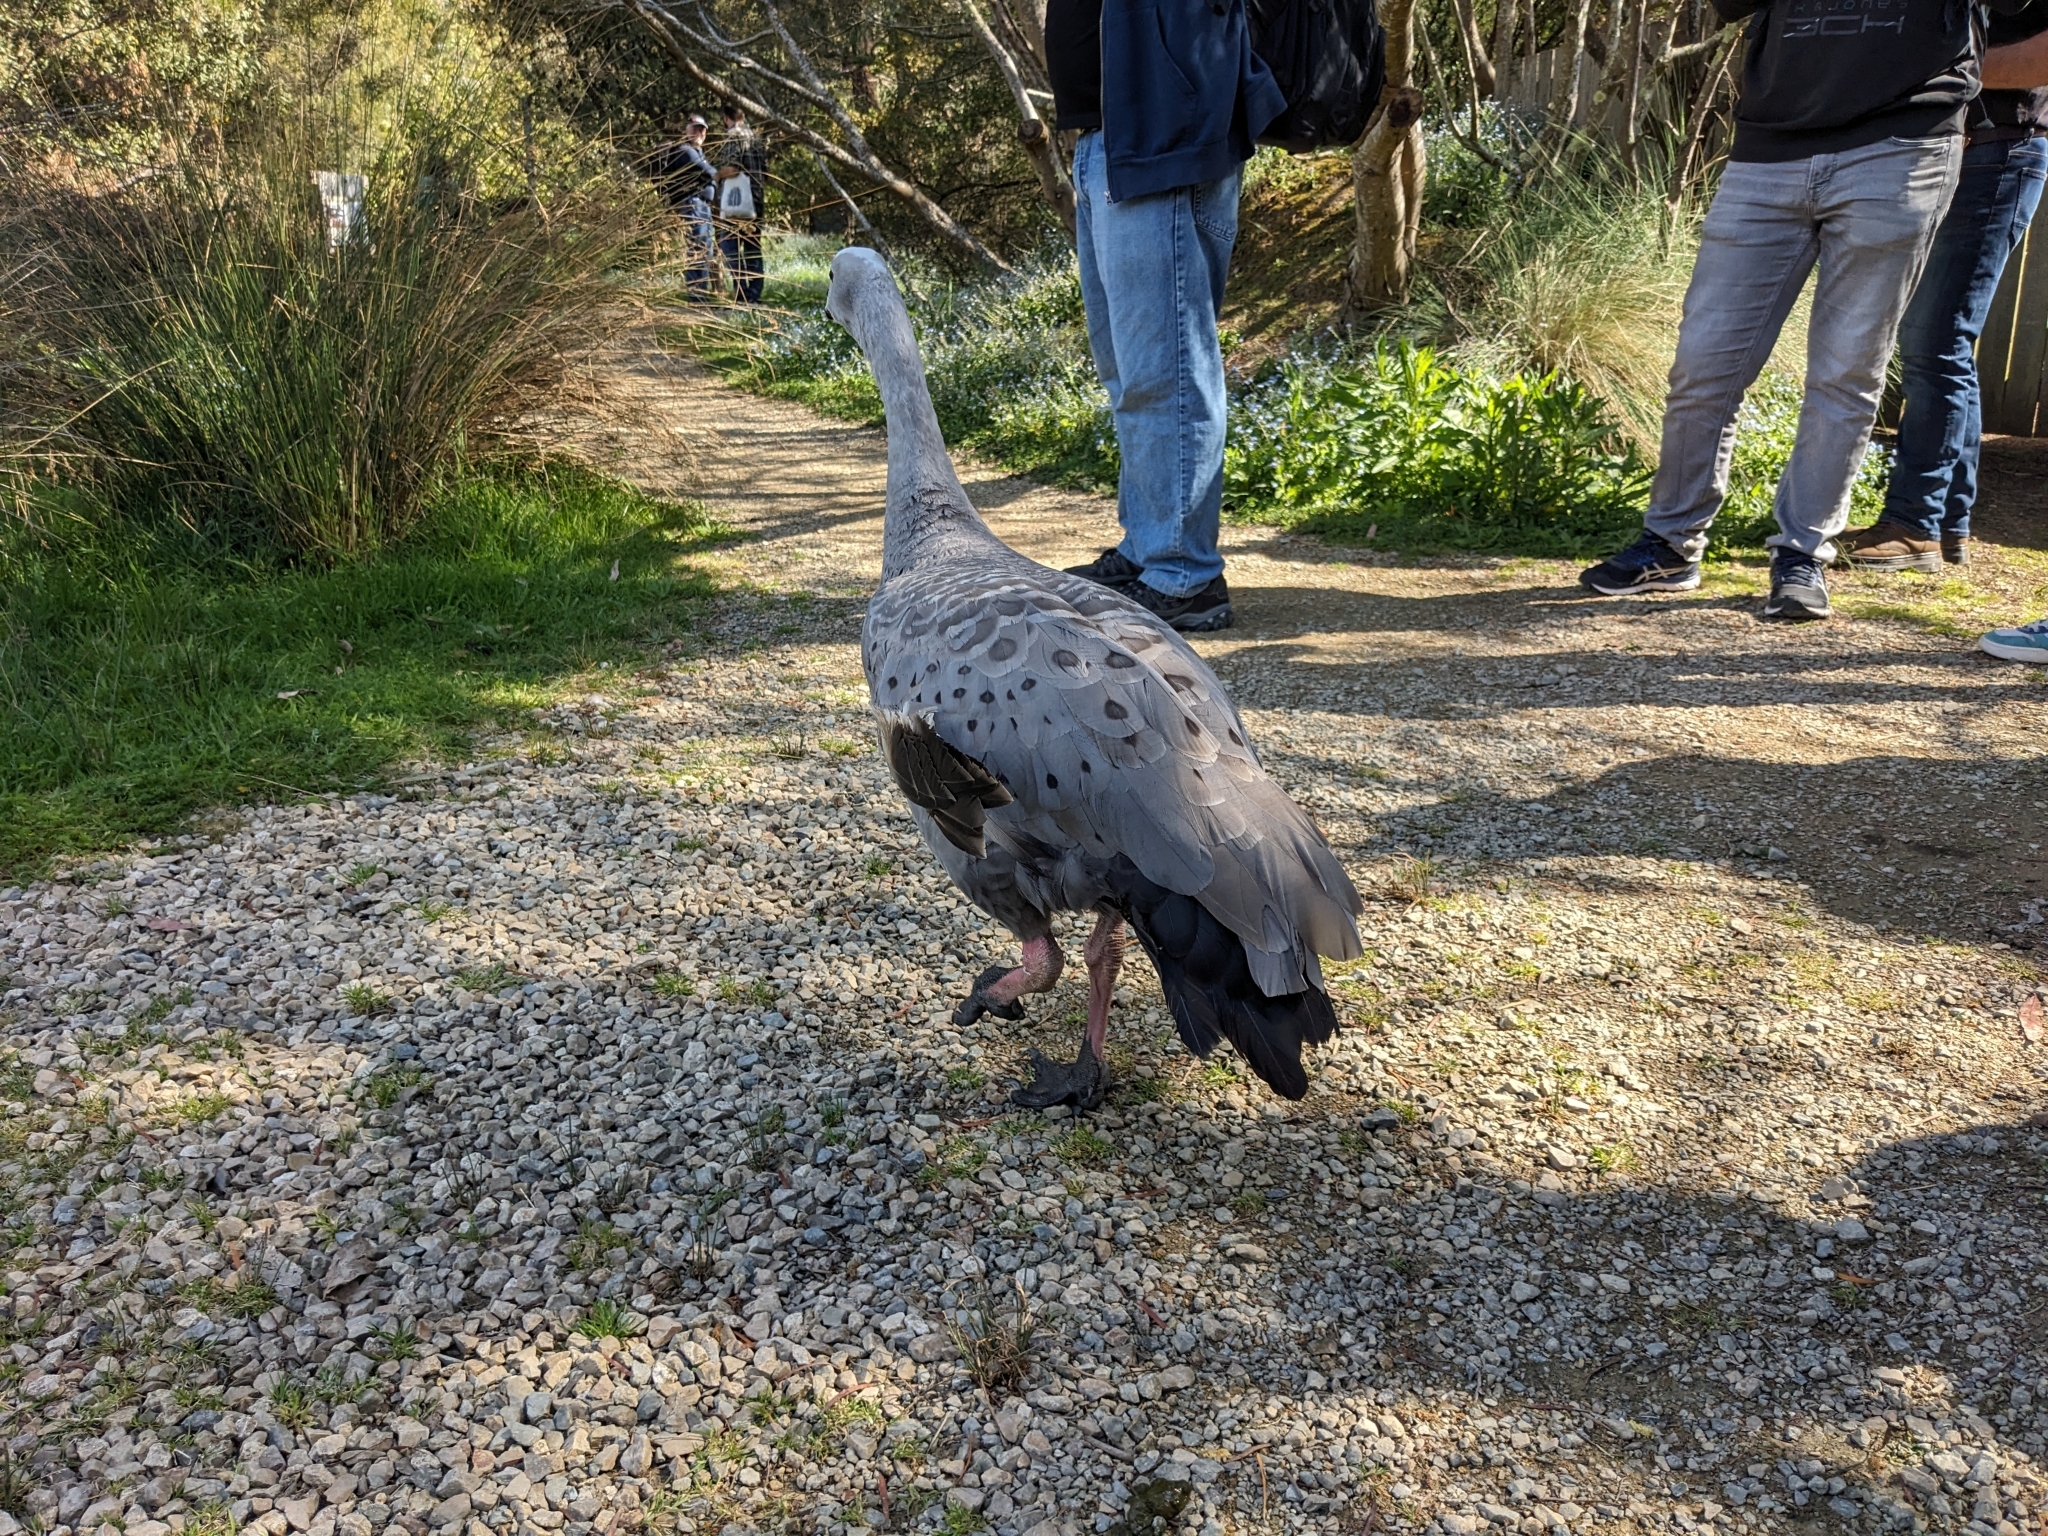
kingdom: Animalia
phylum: Chordata
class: Aves
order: Anseriformes
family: Anatidae
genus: Cereopsis
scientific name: Cereopsis novaehollandiae
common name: Cape barren goose
